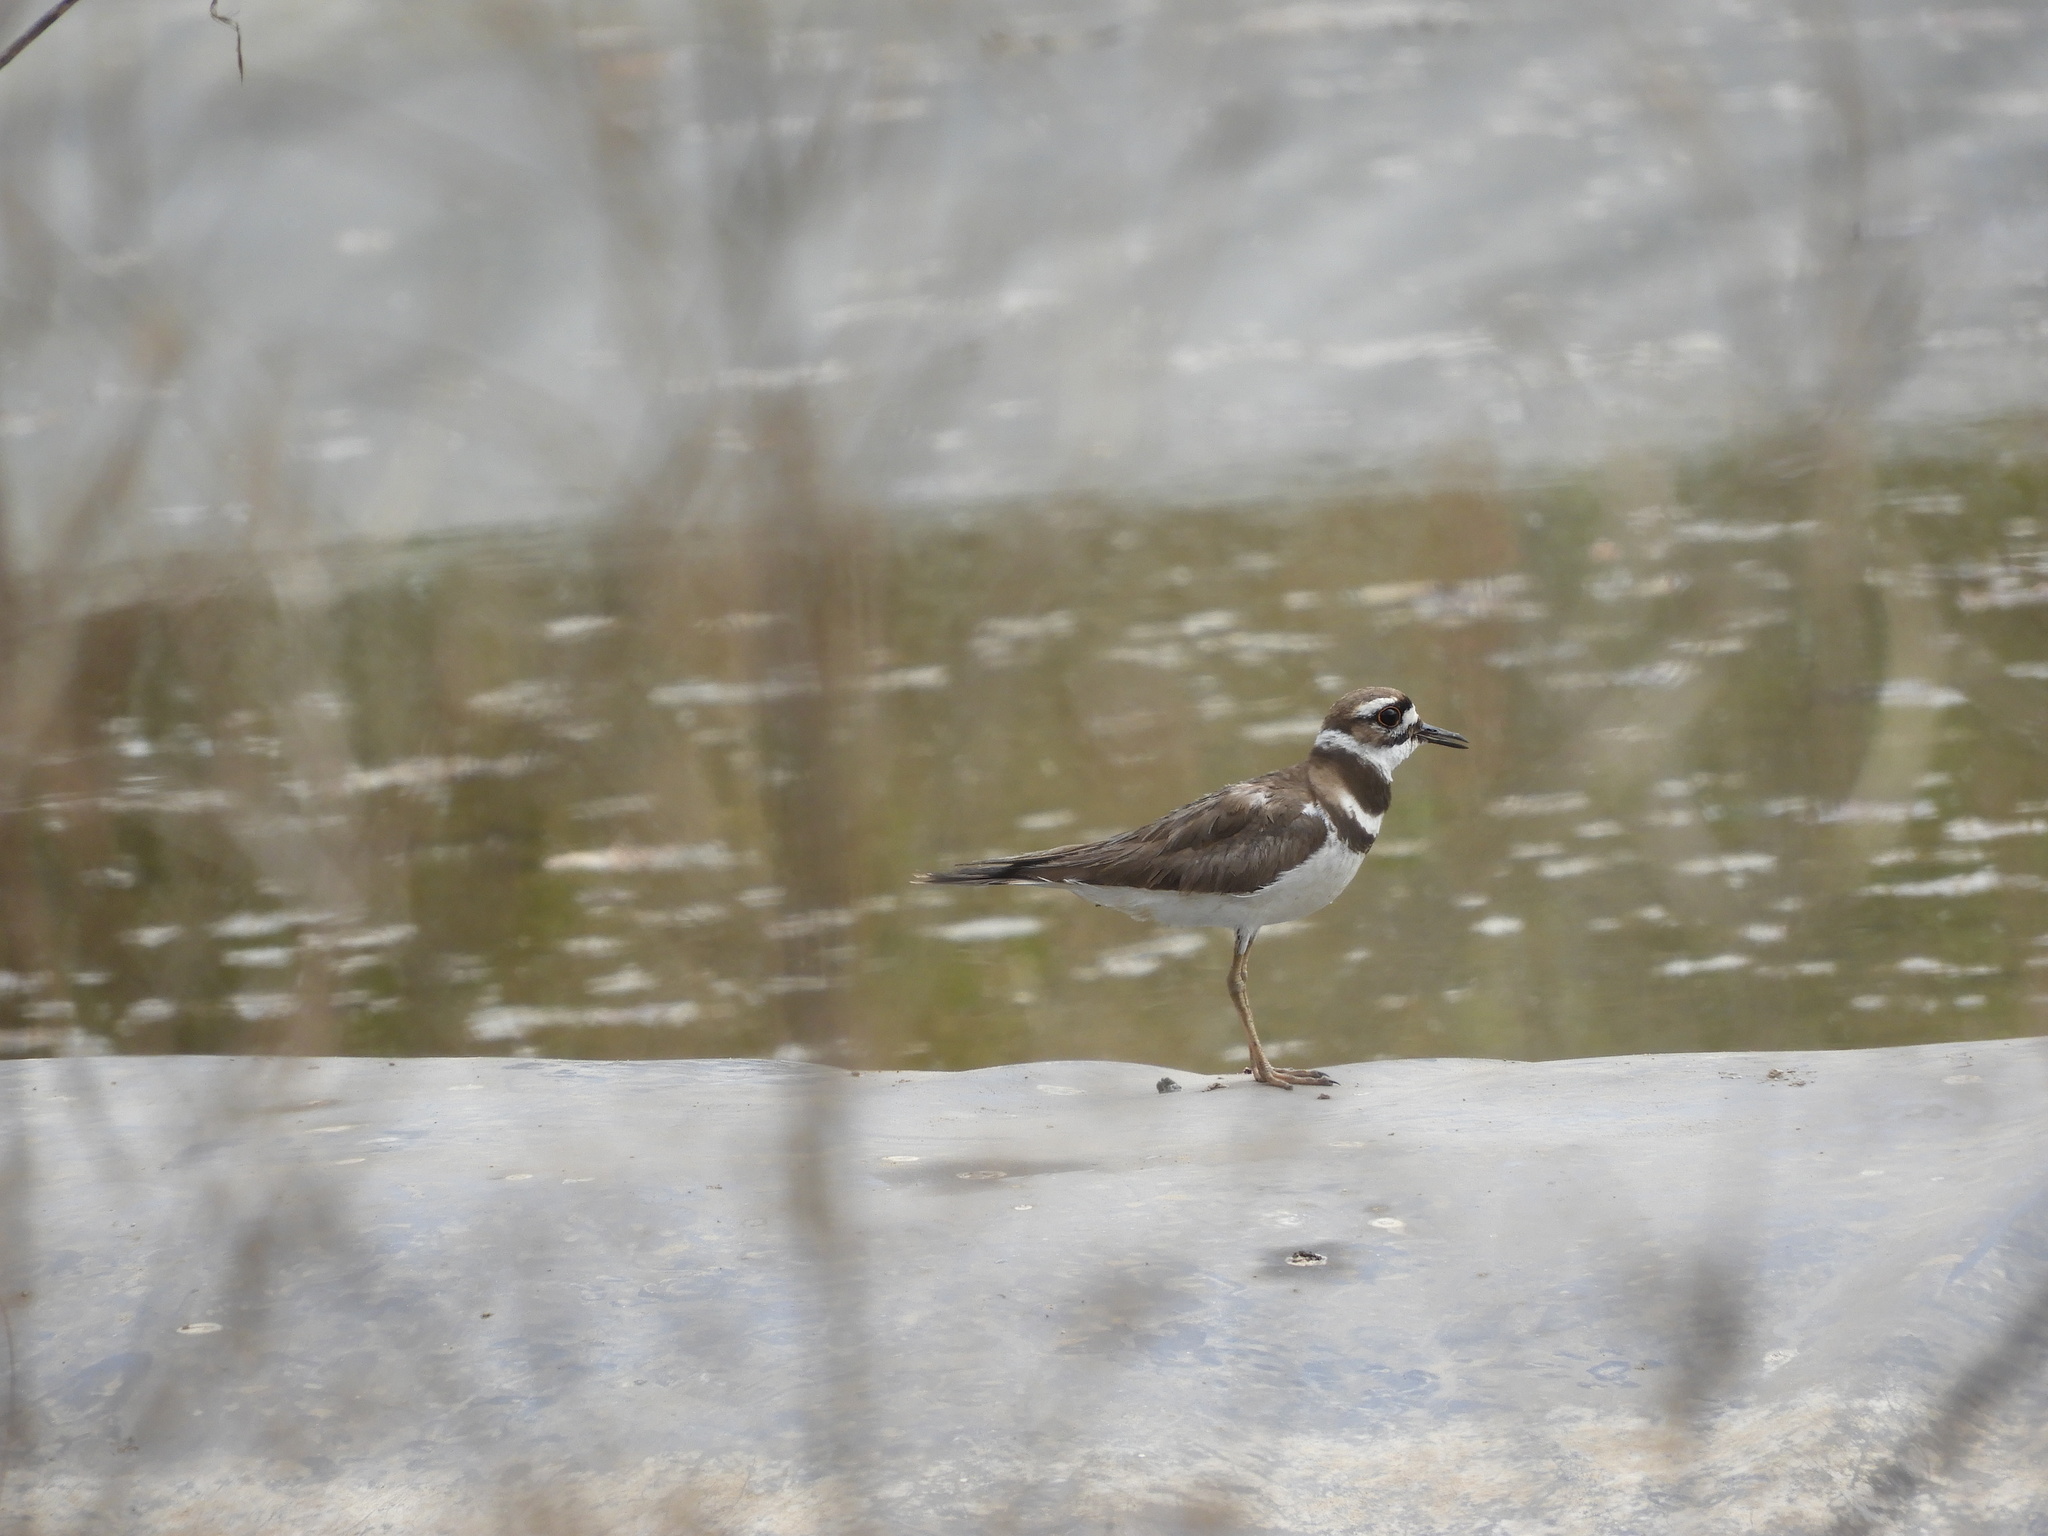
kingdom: Animalia
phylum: Chordata
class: Aves
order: Charadriiformes
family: Charadriidae
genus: Charadrius
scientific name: Charadrius vociferus
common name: Killdeer
